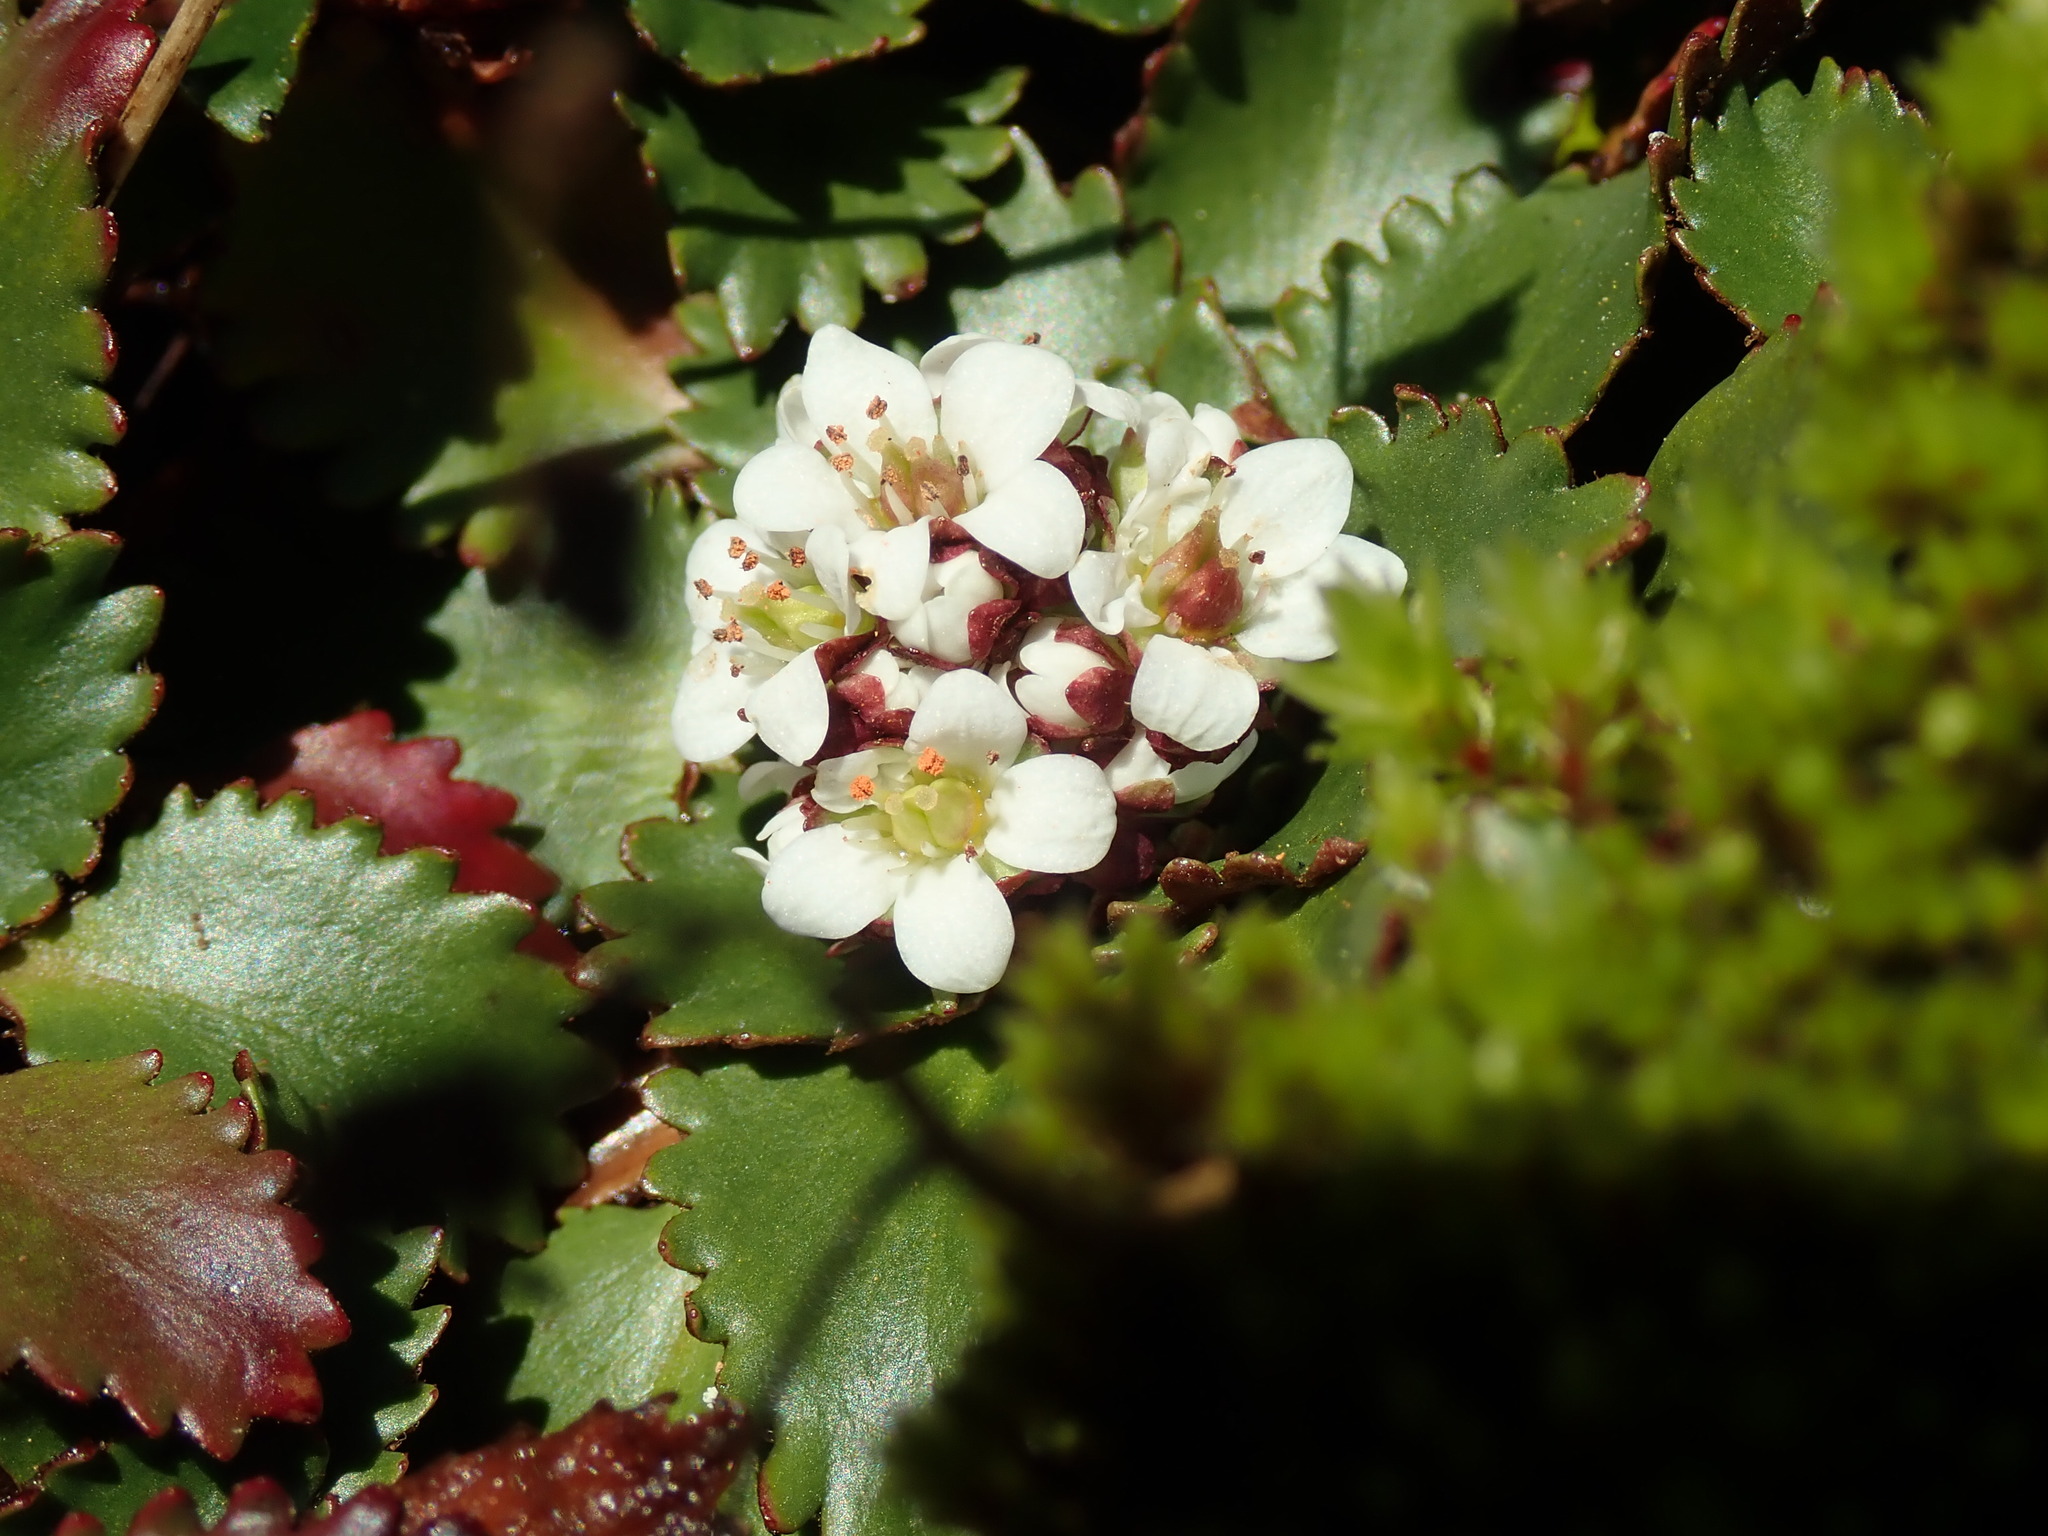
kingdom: Plantae
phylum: Tracheophyta
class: Magnoliopsida
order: Saxifragales
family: Saxifragaceae
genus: Micranthes
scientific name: Micranthes rufidula
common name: Rustyhair saxifrage
